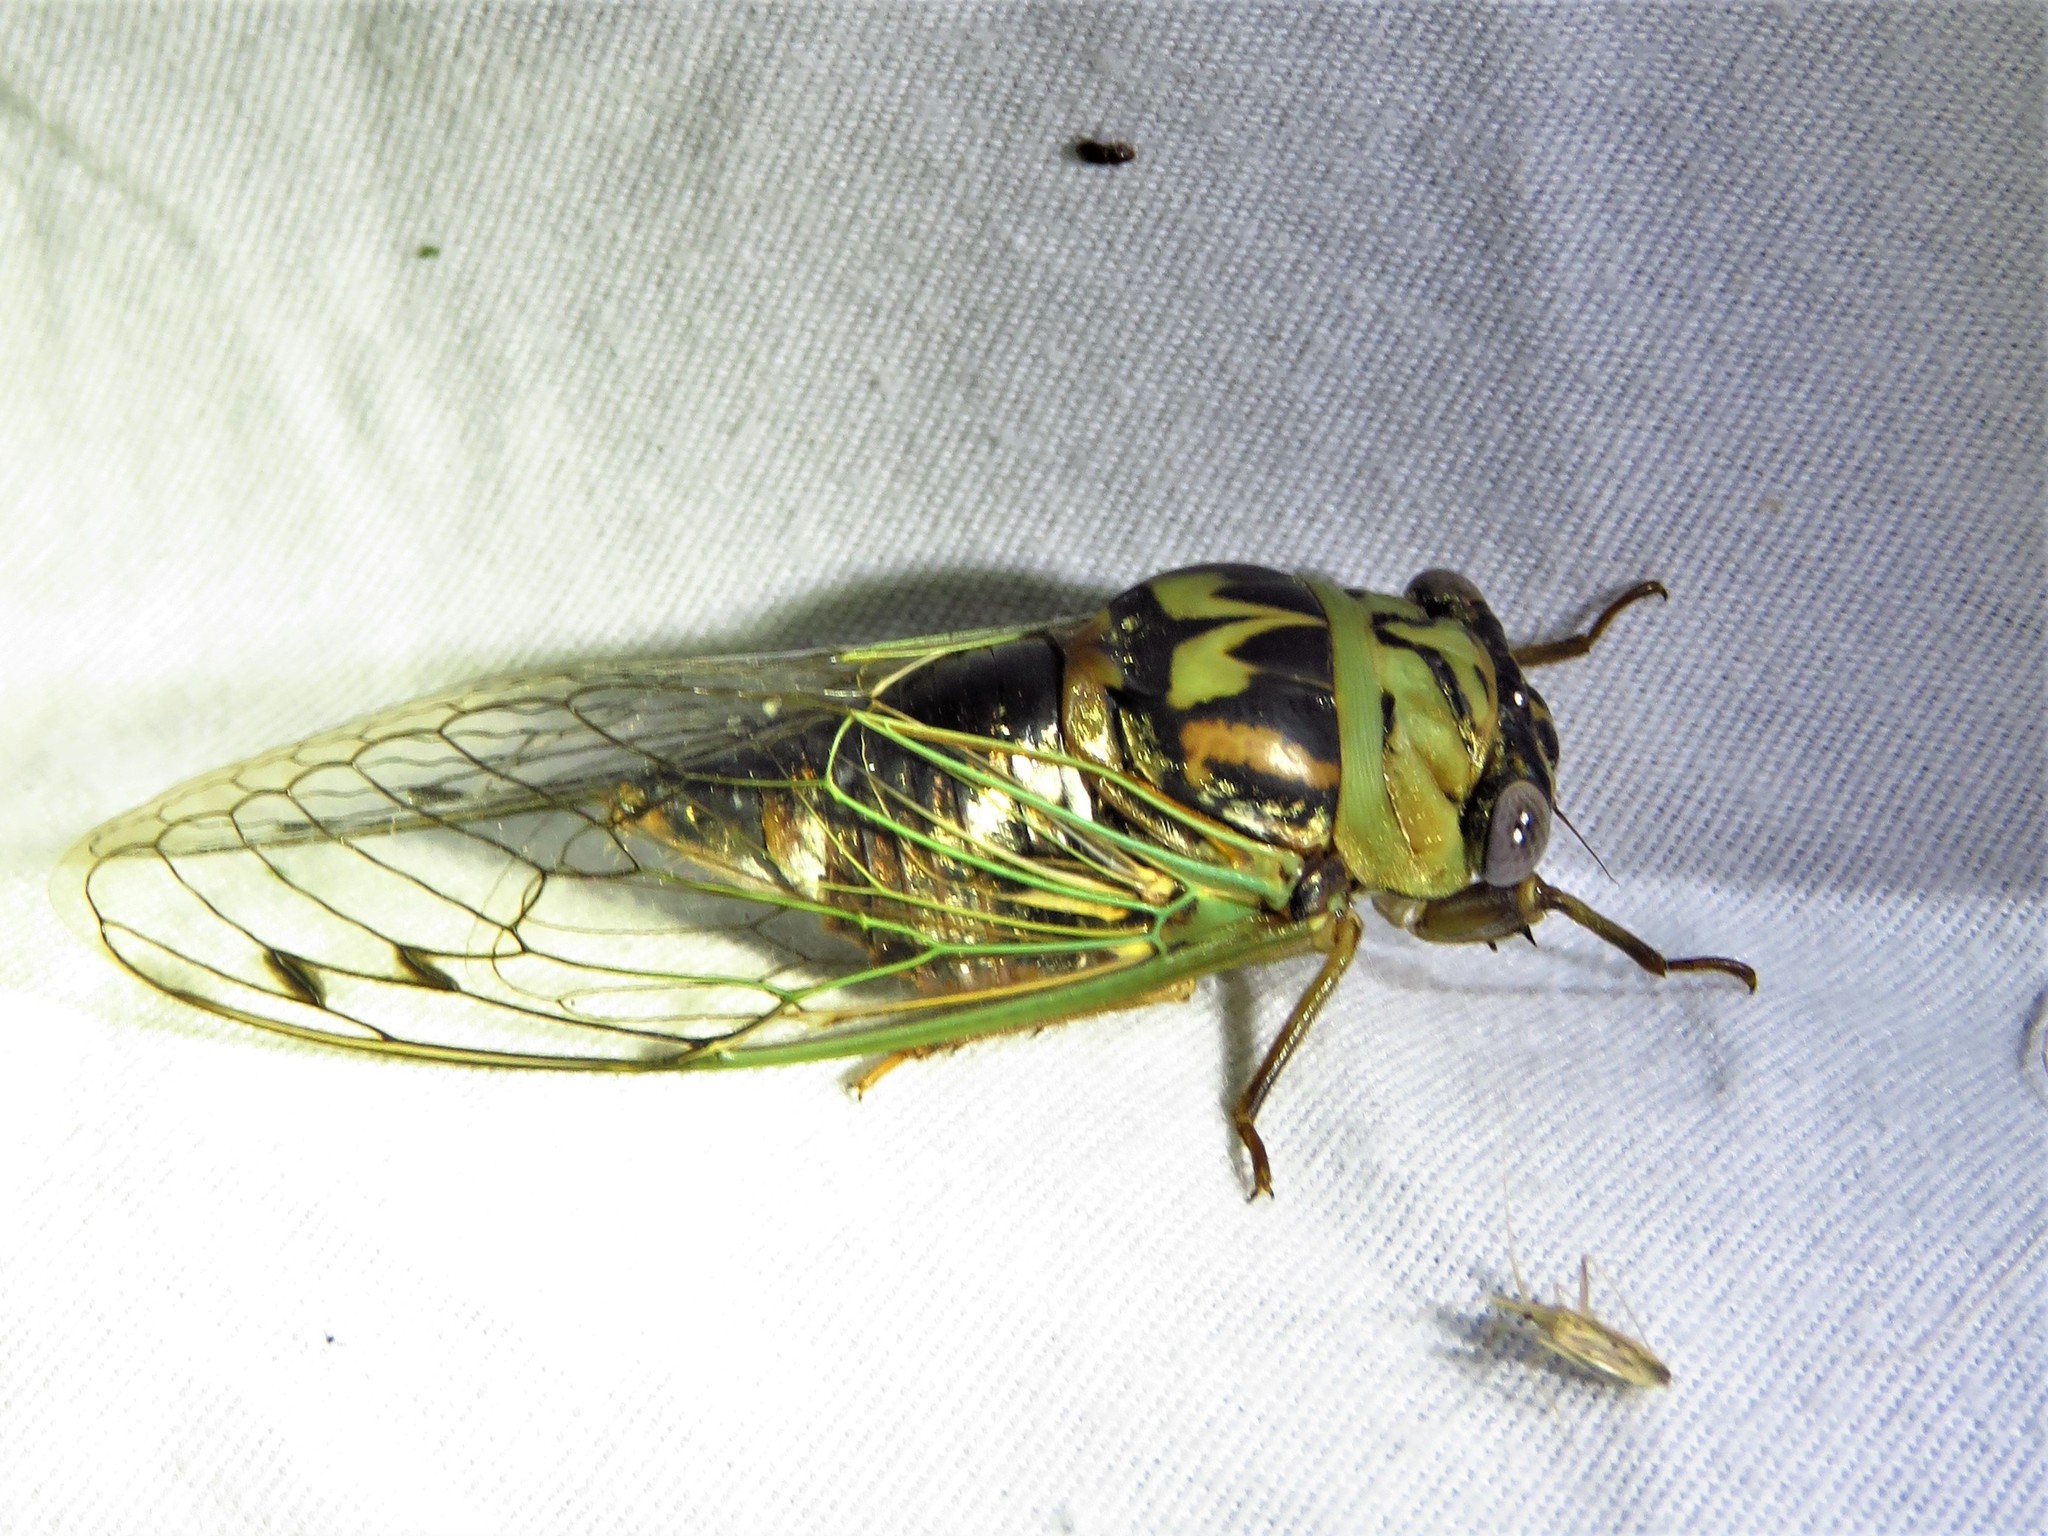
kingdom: Animalia
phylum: Arthropoda
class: Insecta
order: Hemiptera
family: Cicadidae
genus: Megatibicen
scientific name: Megatibicen resh
